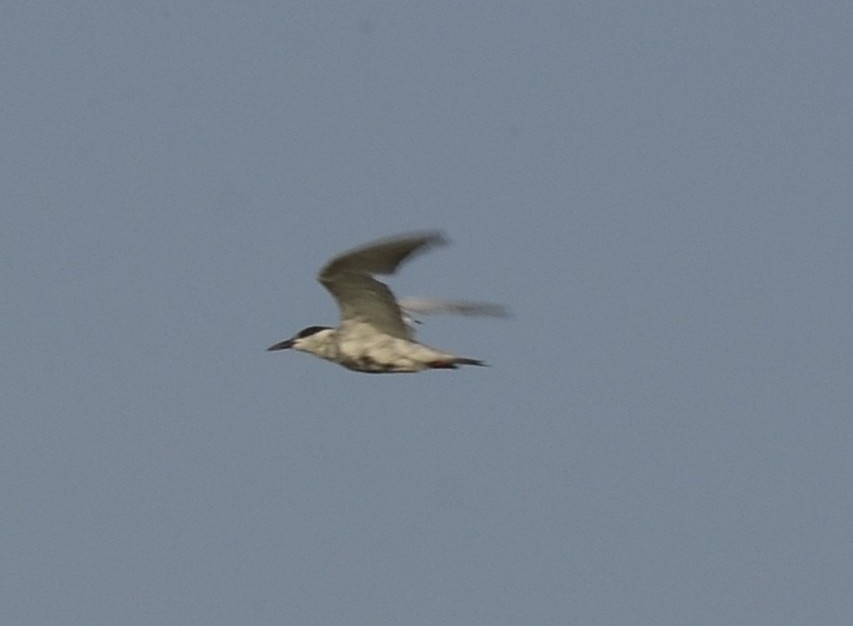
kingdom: Animalia
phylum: Chordata
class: Aves
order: Charadriiformes
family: Laridae
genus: Chlidonias
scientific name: Chlidonias hybrida
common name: Whiskered tern
